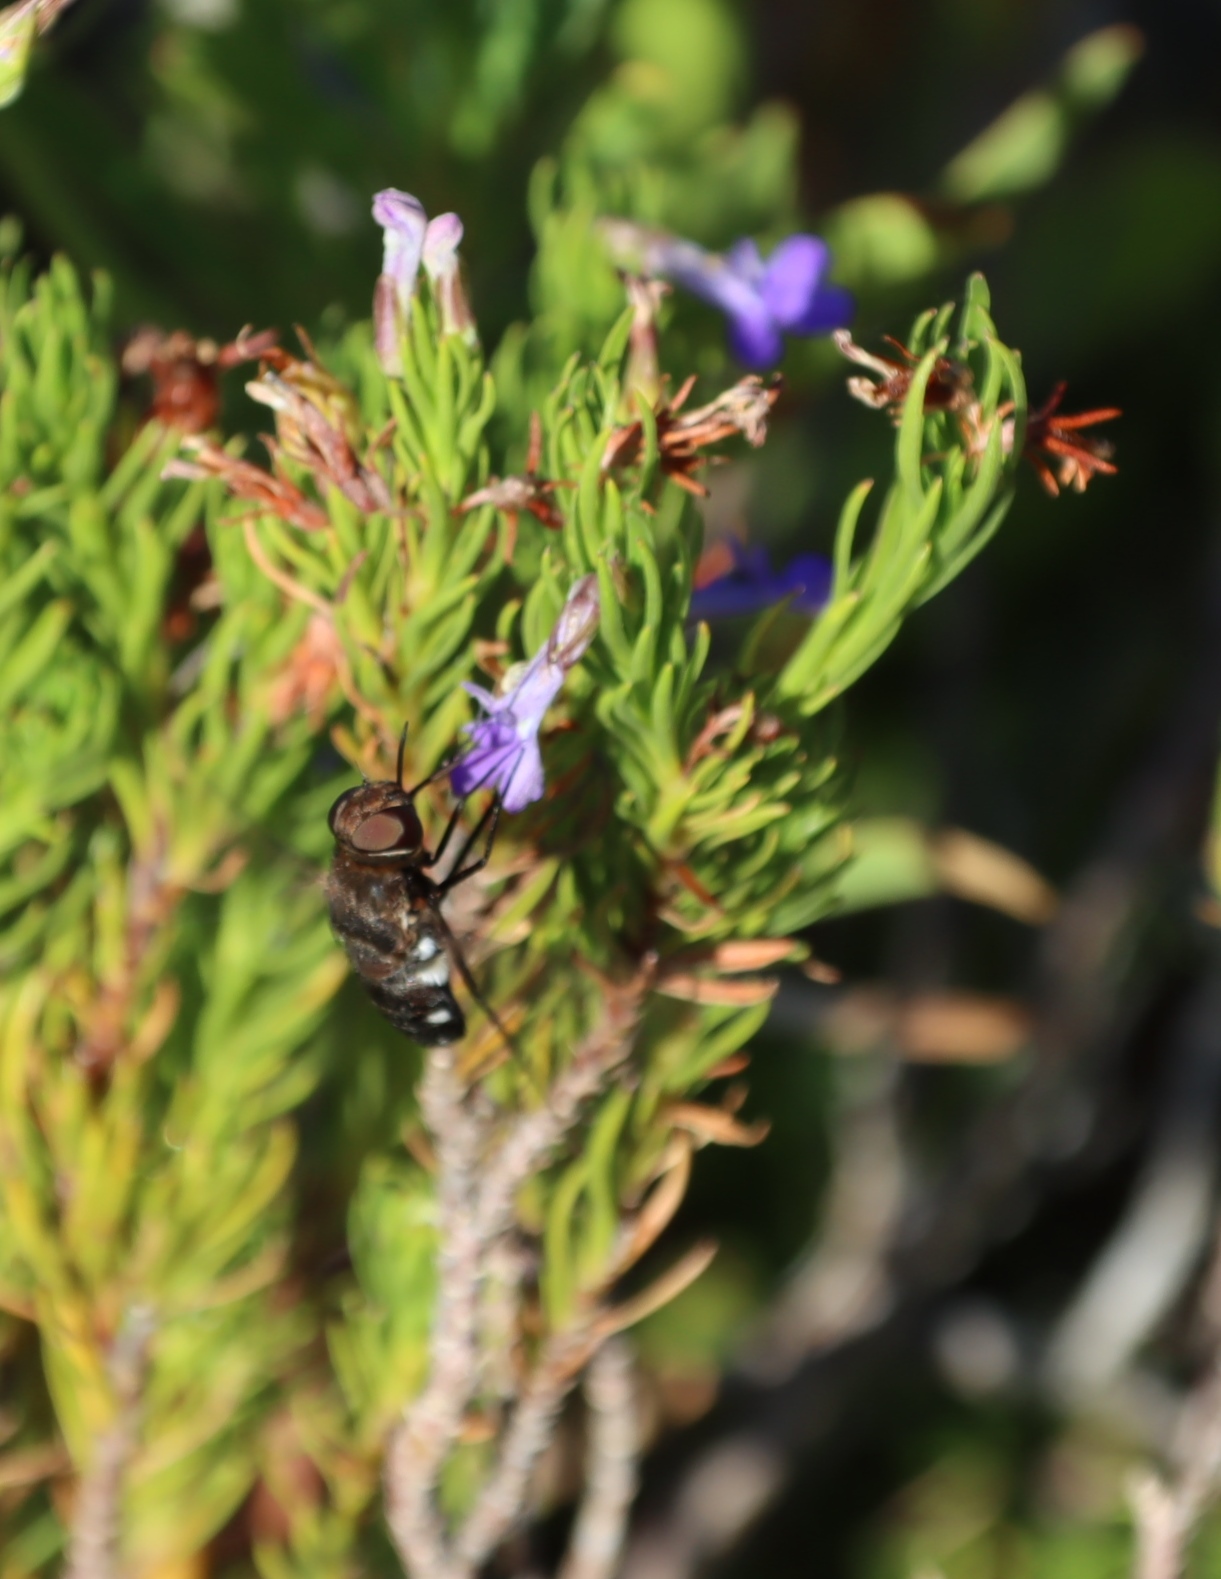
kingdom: Plantae
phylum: Tracheophyta
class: Magnoliopsida
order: Asterales
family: Campanulaceae
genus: Lobelia
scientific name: Lobelia pinifolia
